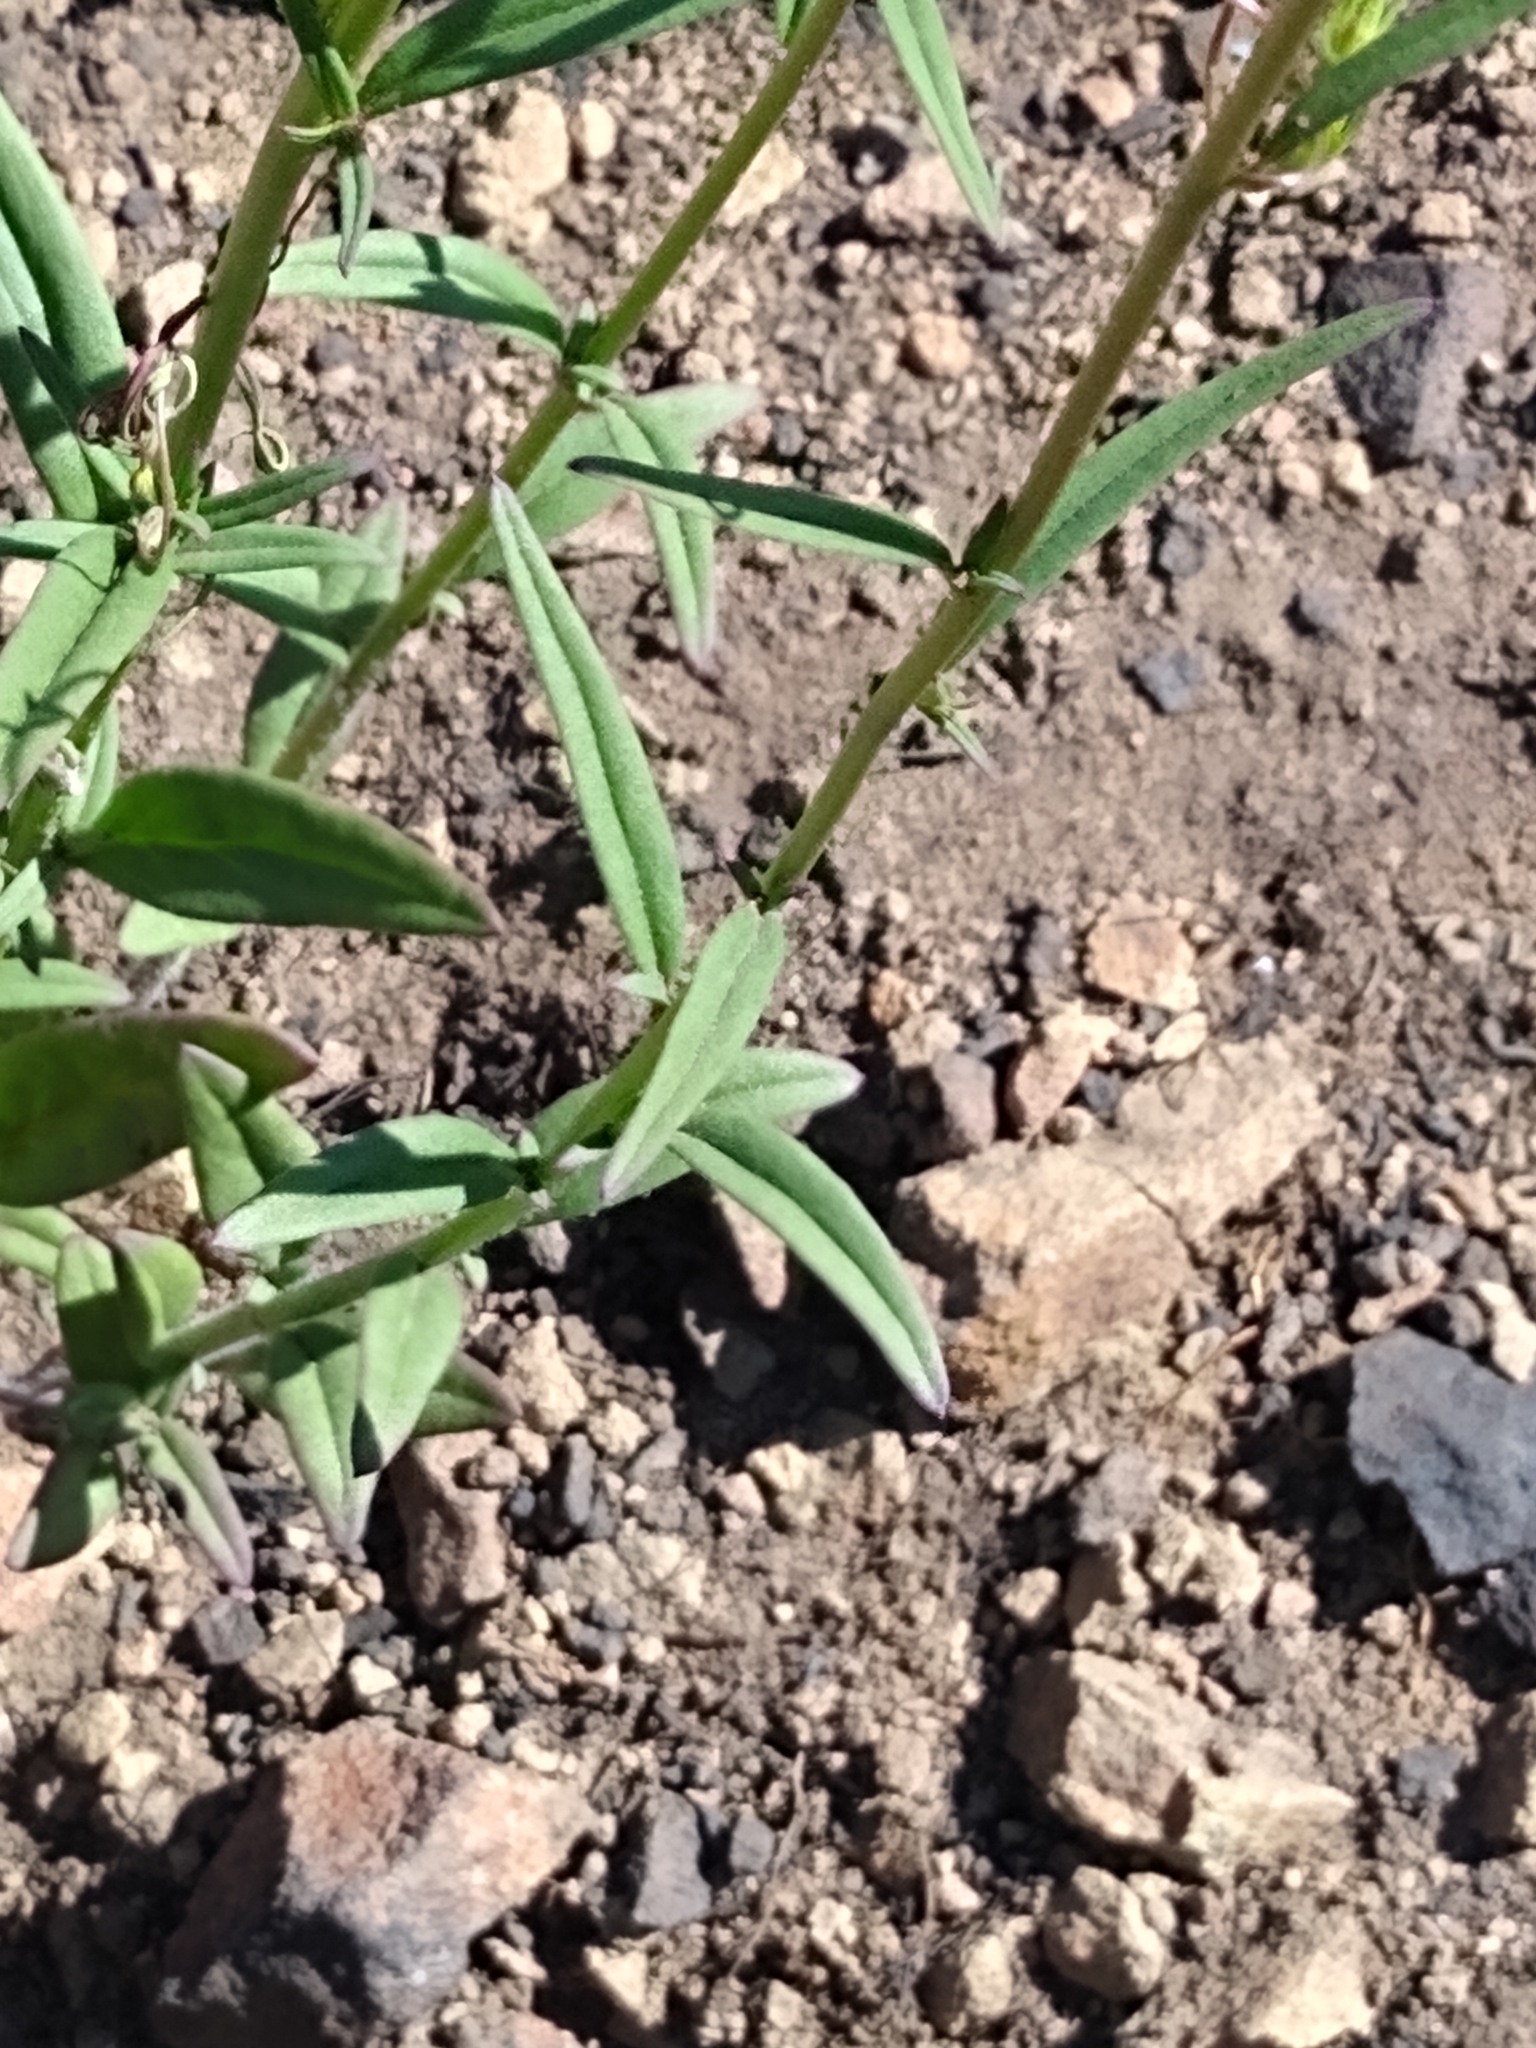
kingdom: Plantae
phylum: Tracheophyta
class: Magnoliopsida
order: Lamiales
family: Plantaginaceae
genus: Neogaerrhinum
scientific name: Neogaerrhinum strictum
